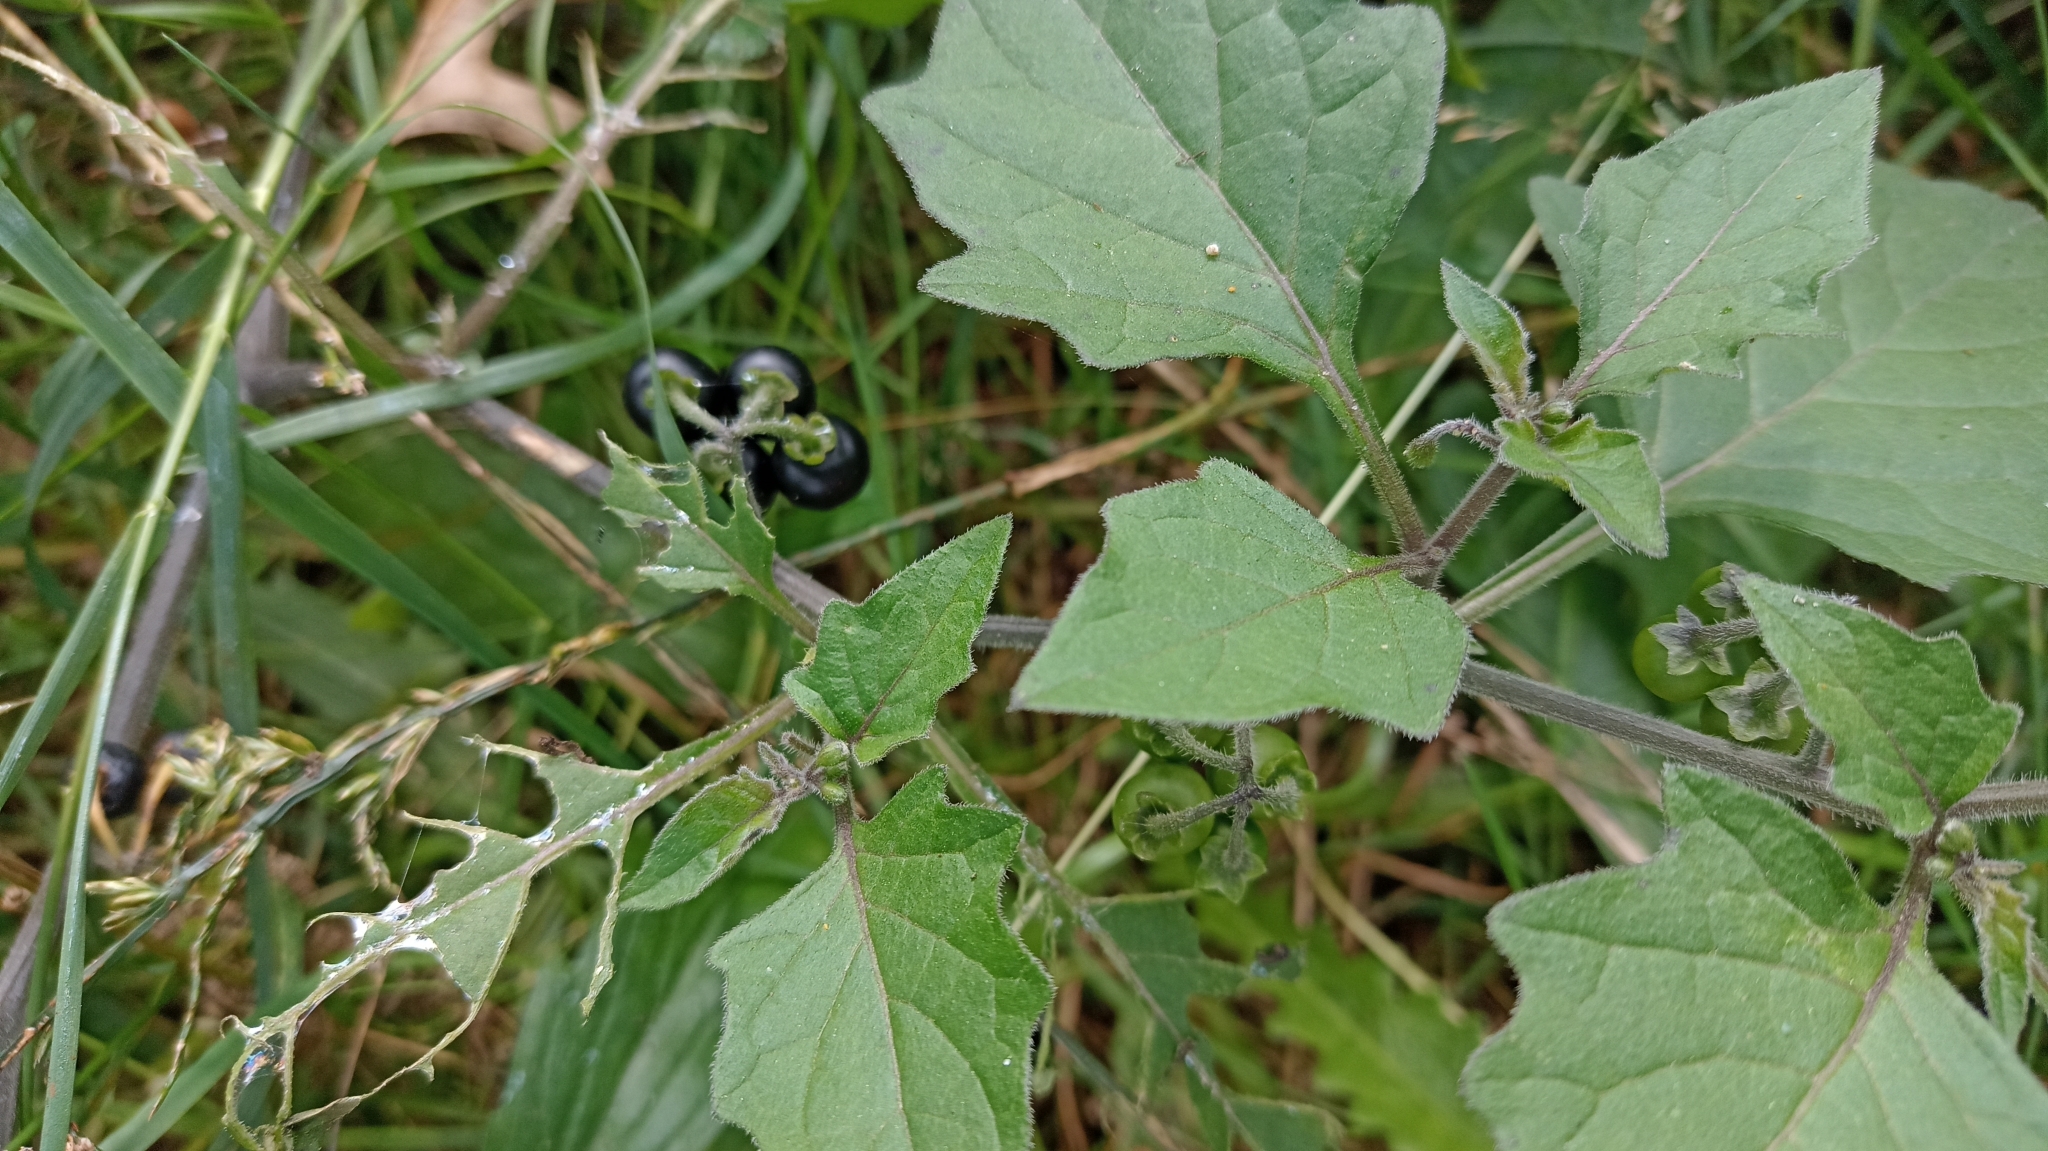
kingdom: Plantae
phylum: Tracheophyta
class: Magnoliopsida
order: Solanales
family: Solanaceae
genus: Solanum
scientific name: Solanum nigrum
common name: Black nightshade
